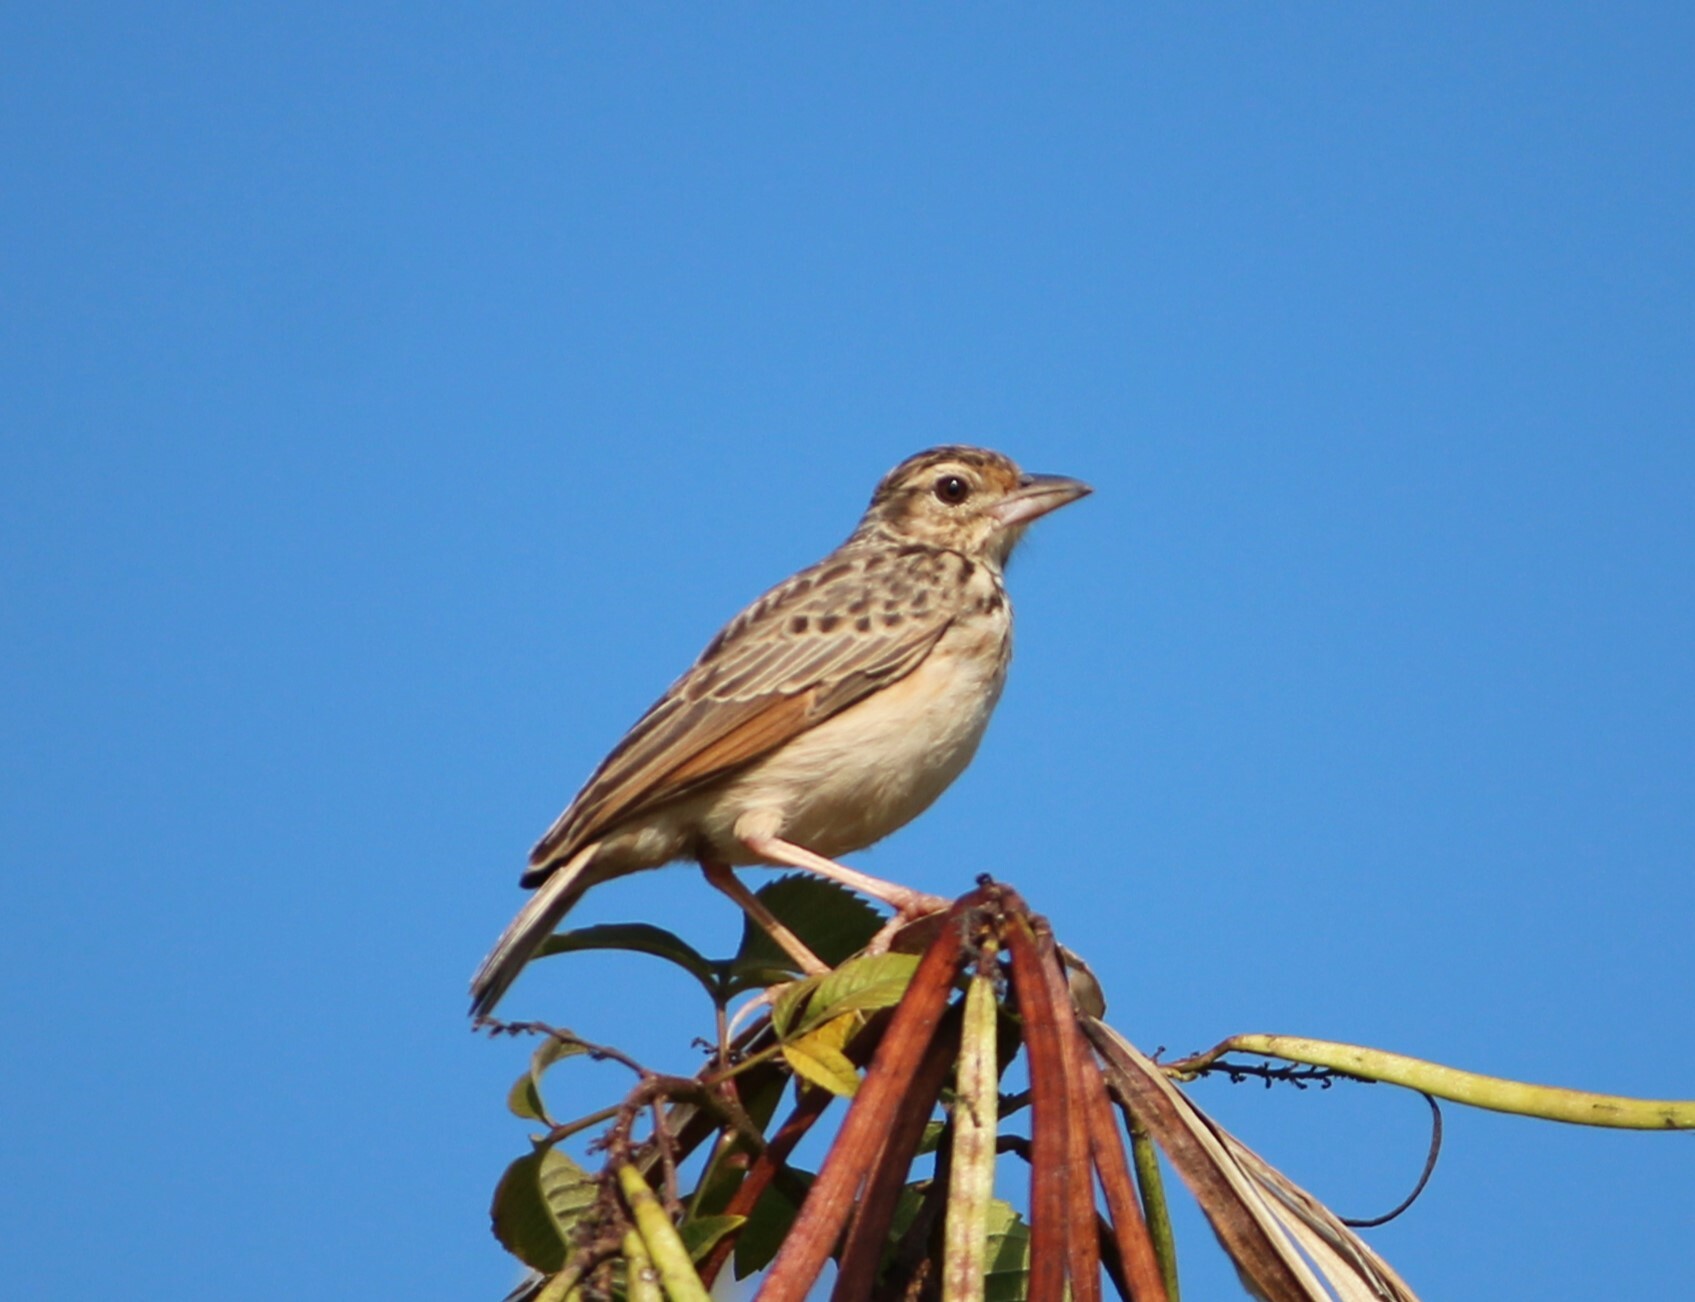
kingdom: Animalia
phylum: Chordata
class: Aves
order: Passeriformes
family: Alaudidae
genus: Mirafra
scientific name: Mirafra affinis
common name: Jerdon's bushlark
